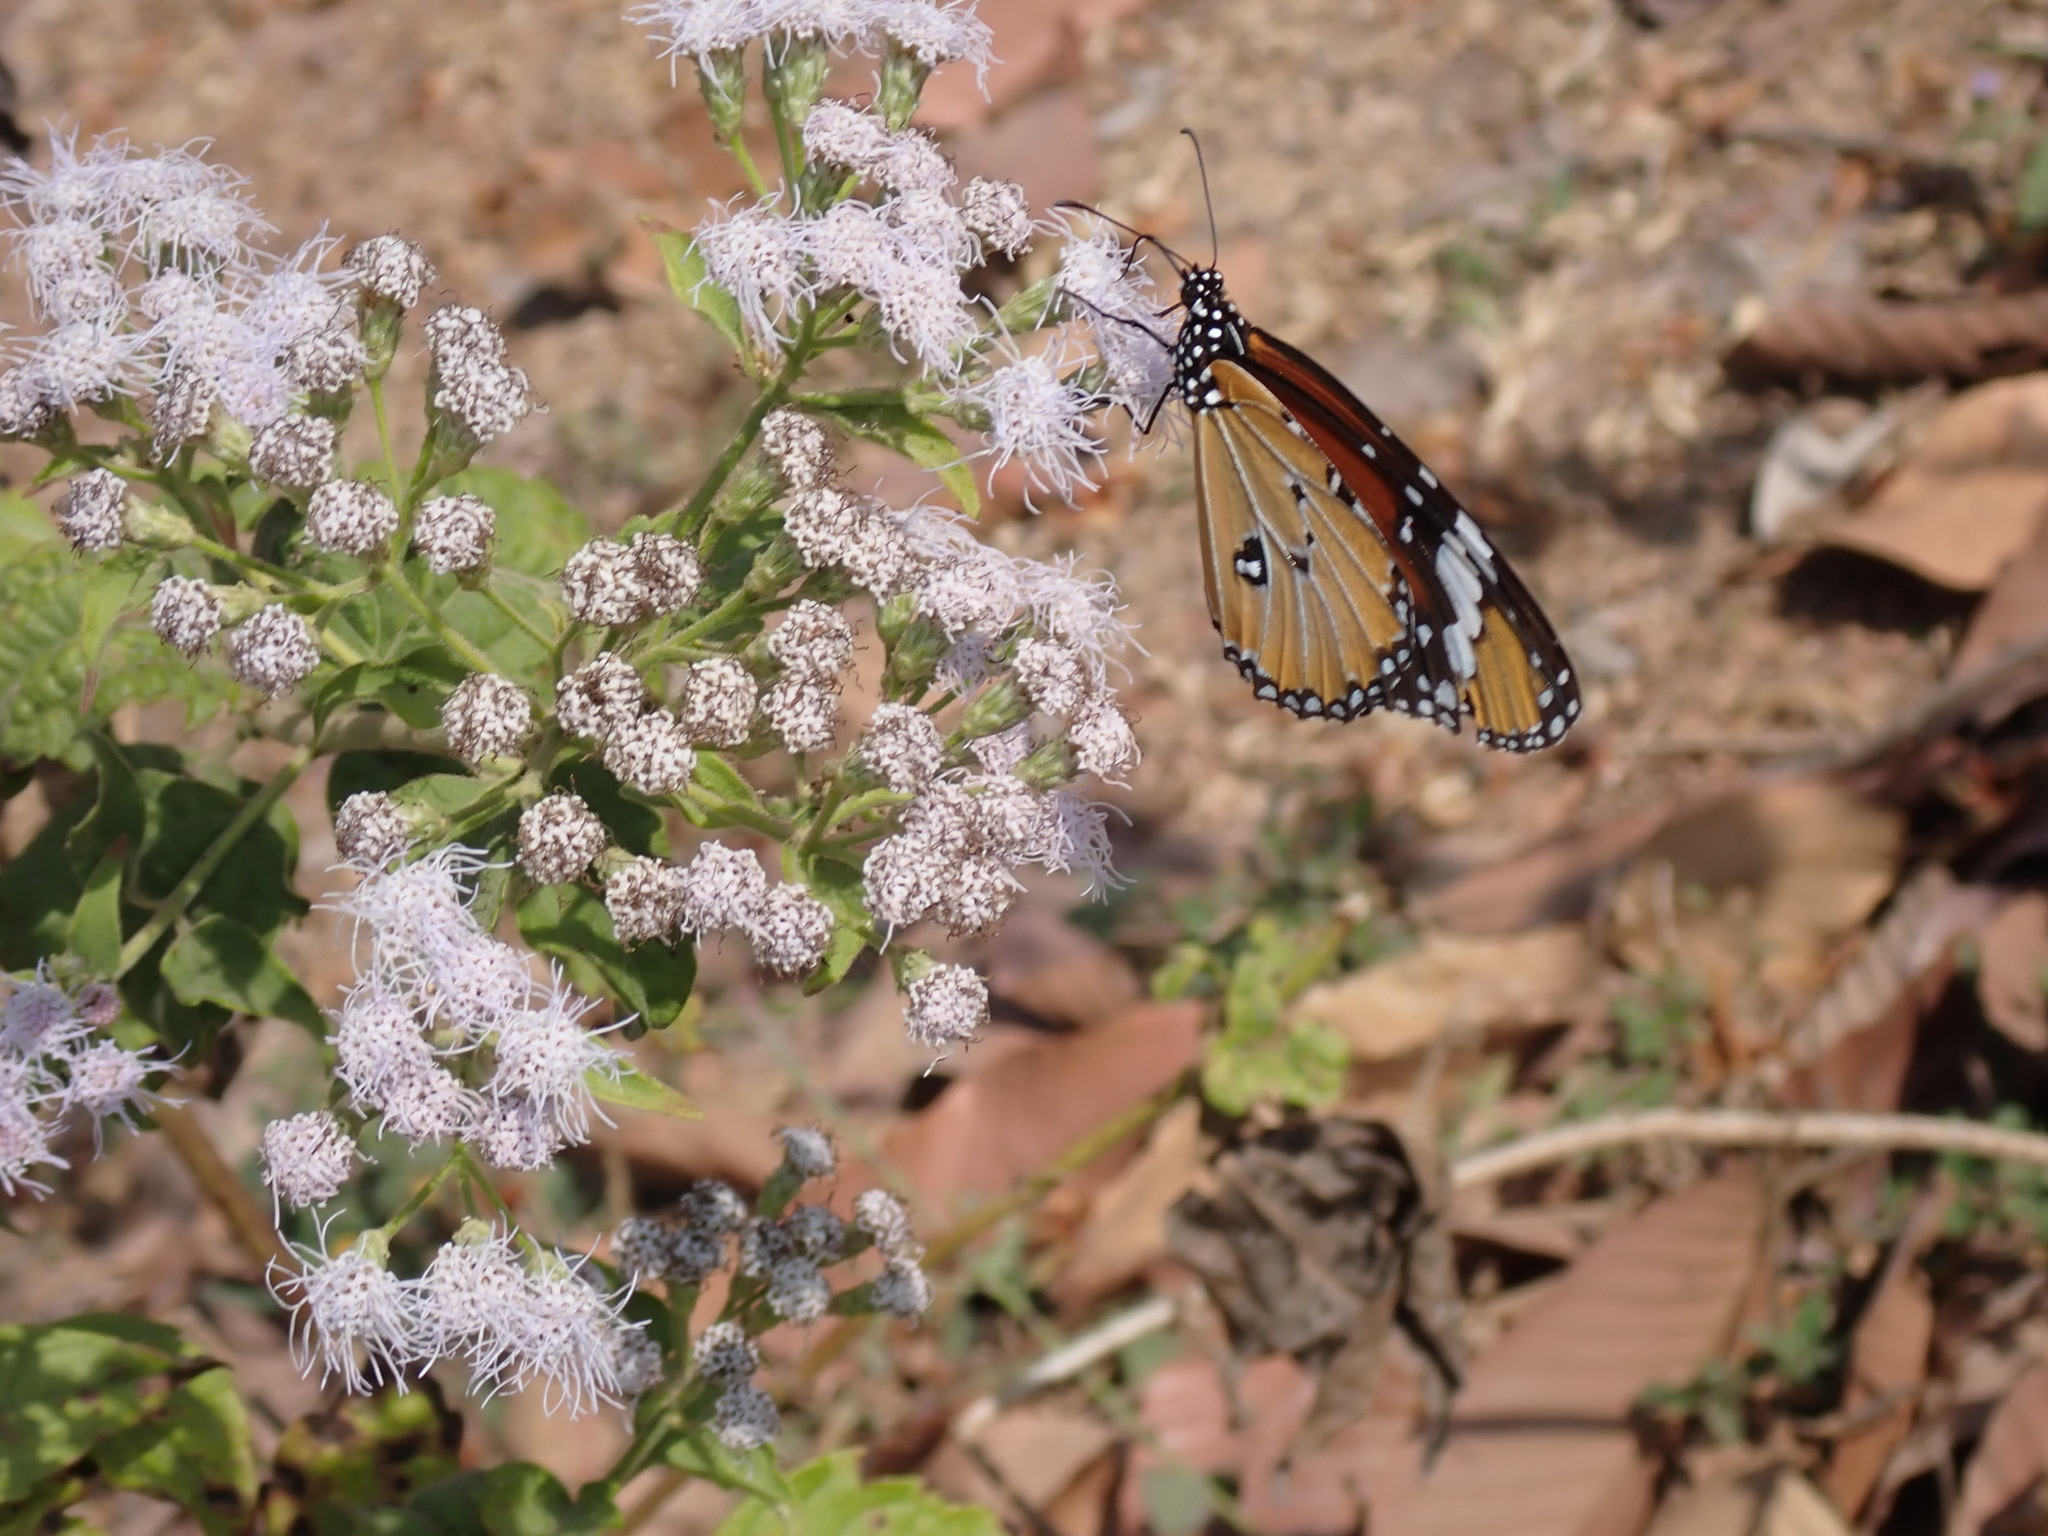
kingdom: Plantae
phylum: Tracheophyta
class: Magnoliopsida
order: Asterales
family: Asteraceae
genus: Chromolaena
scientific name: Chromolaena odorata
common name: Siamweed
